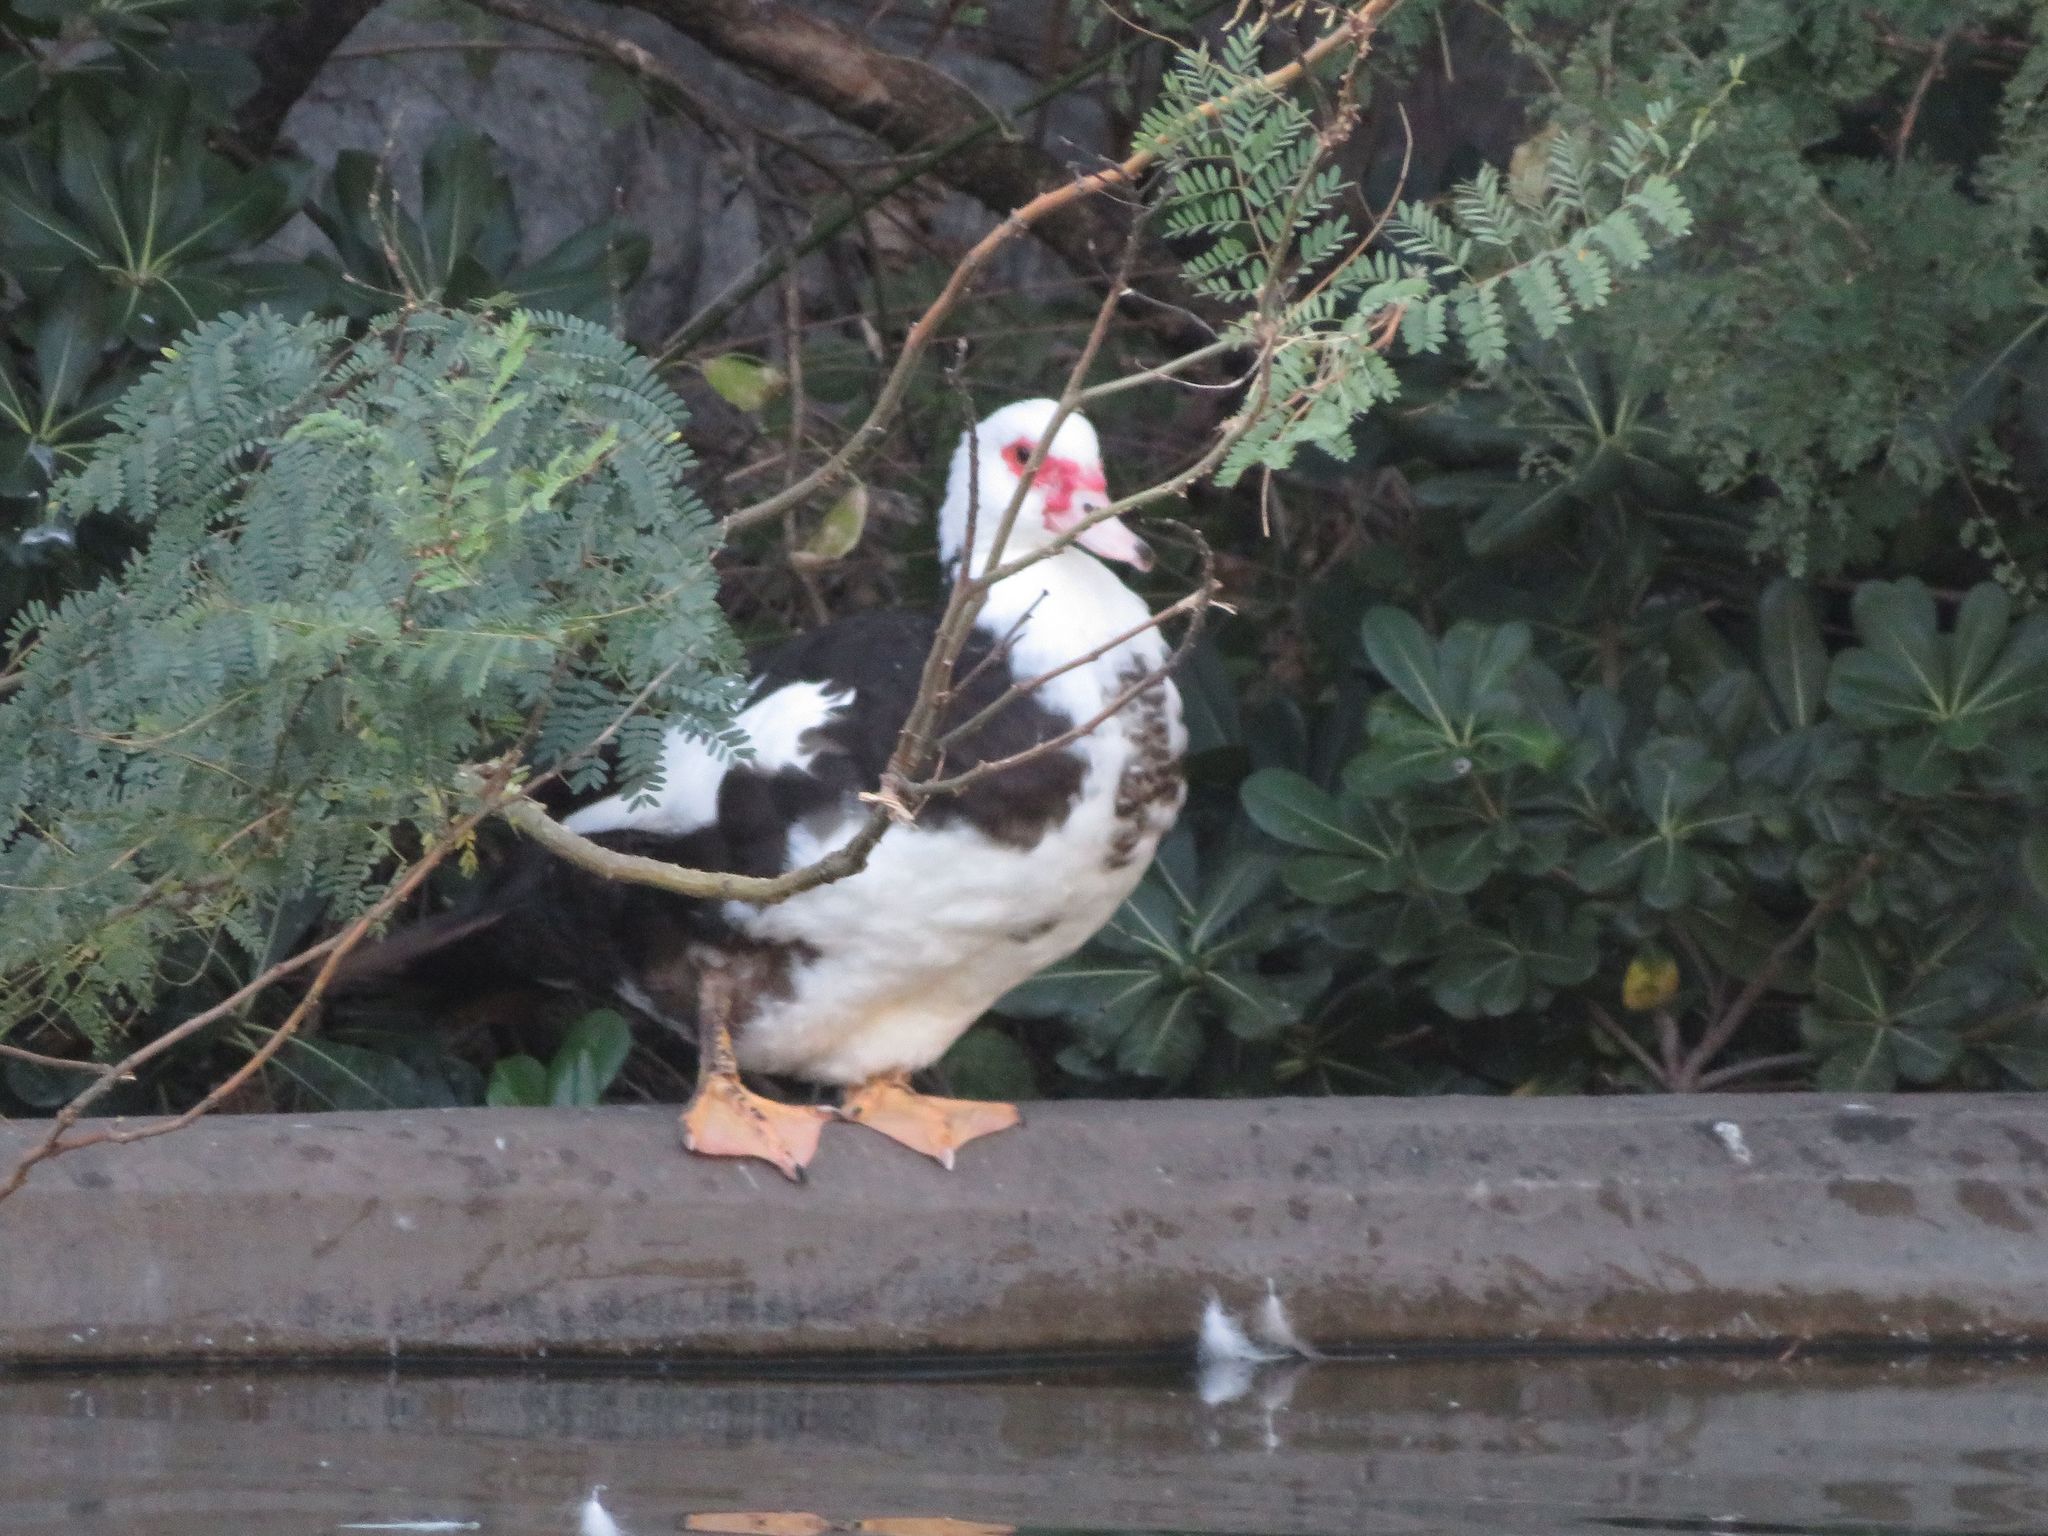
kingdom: Animalia
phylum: Chordata
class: Aves
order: Anseriformes
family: Anatidae
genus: Cairina
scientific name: Cairina moschata
